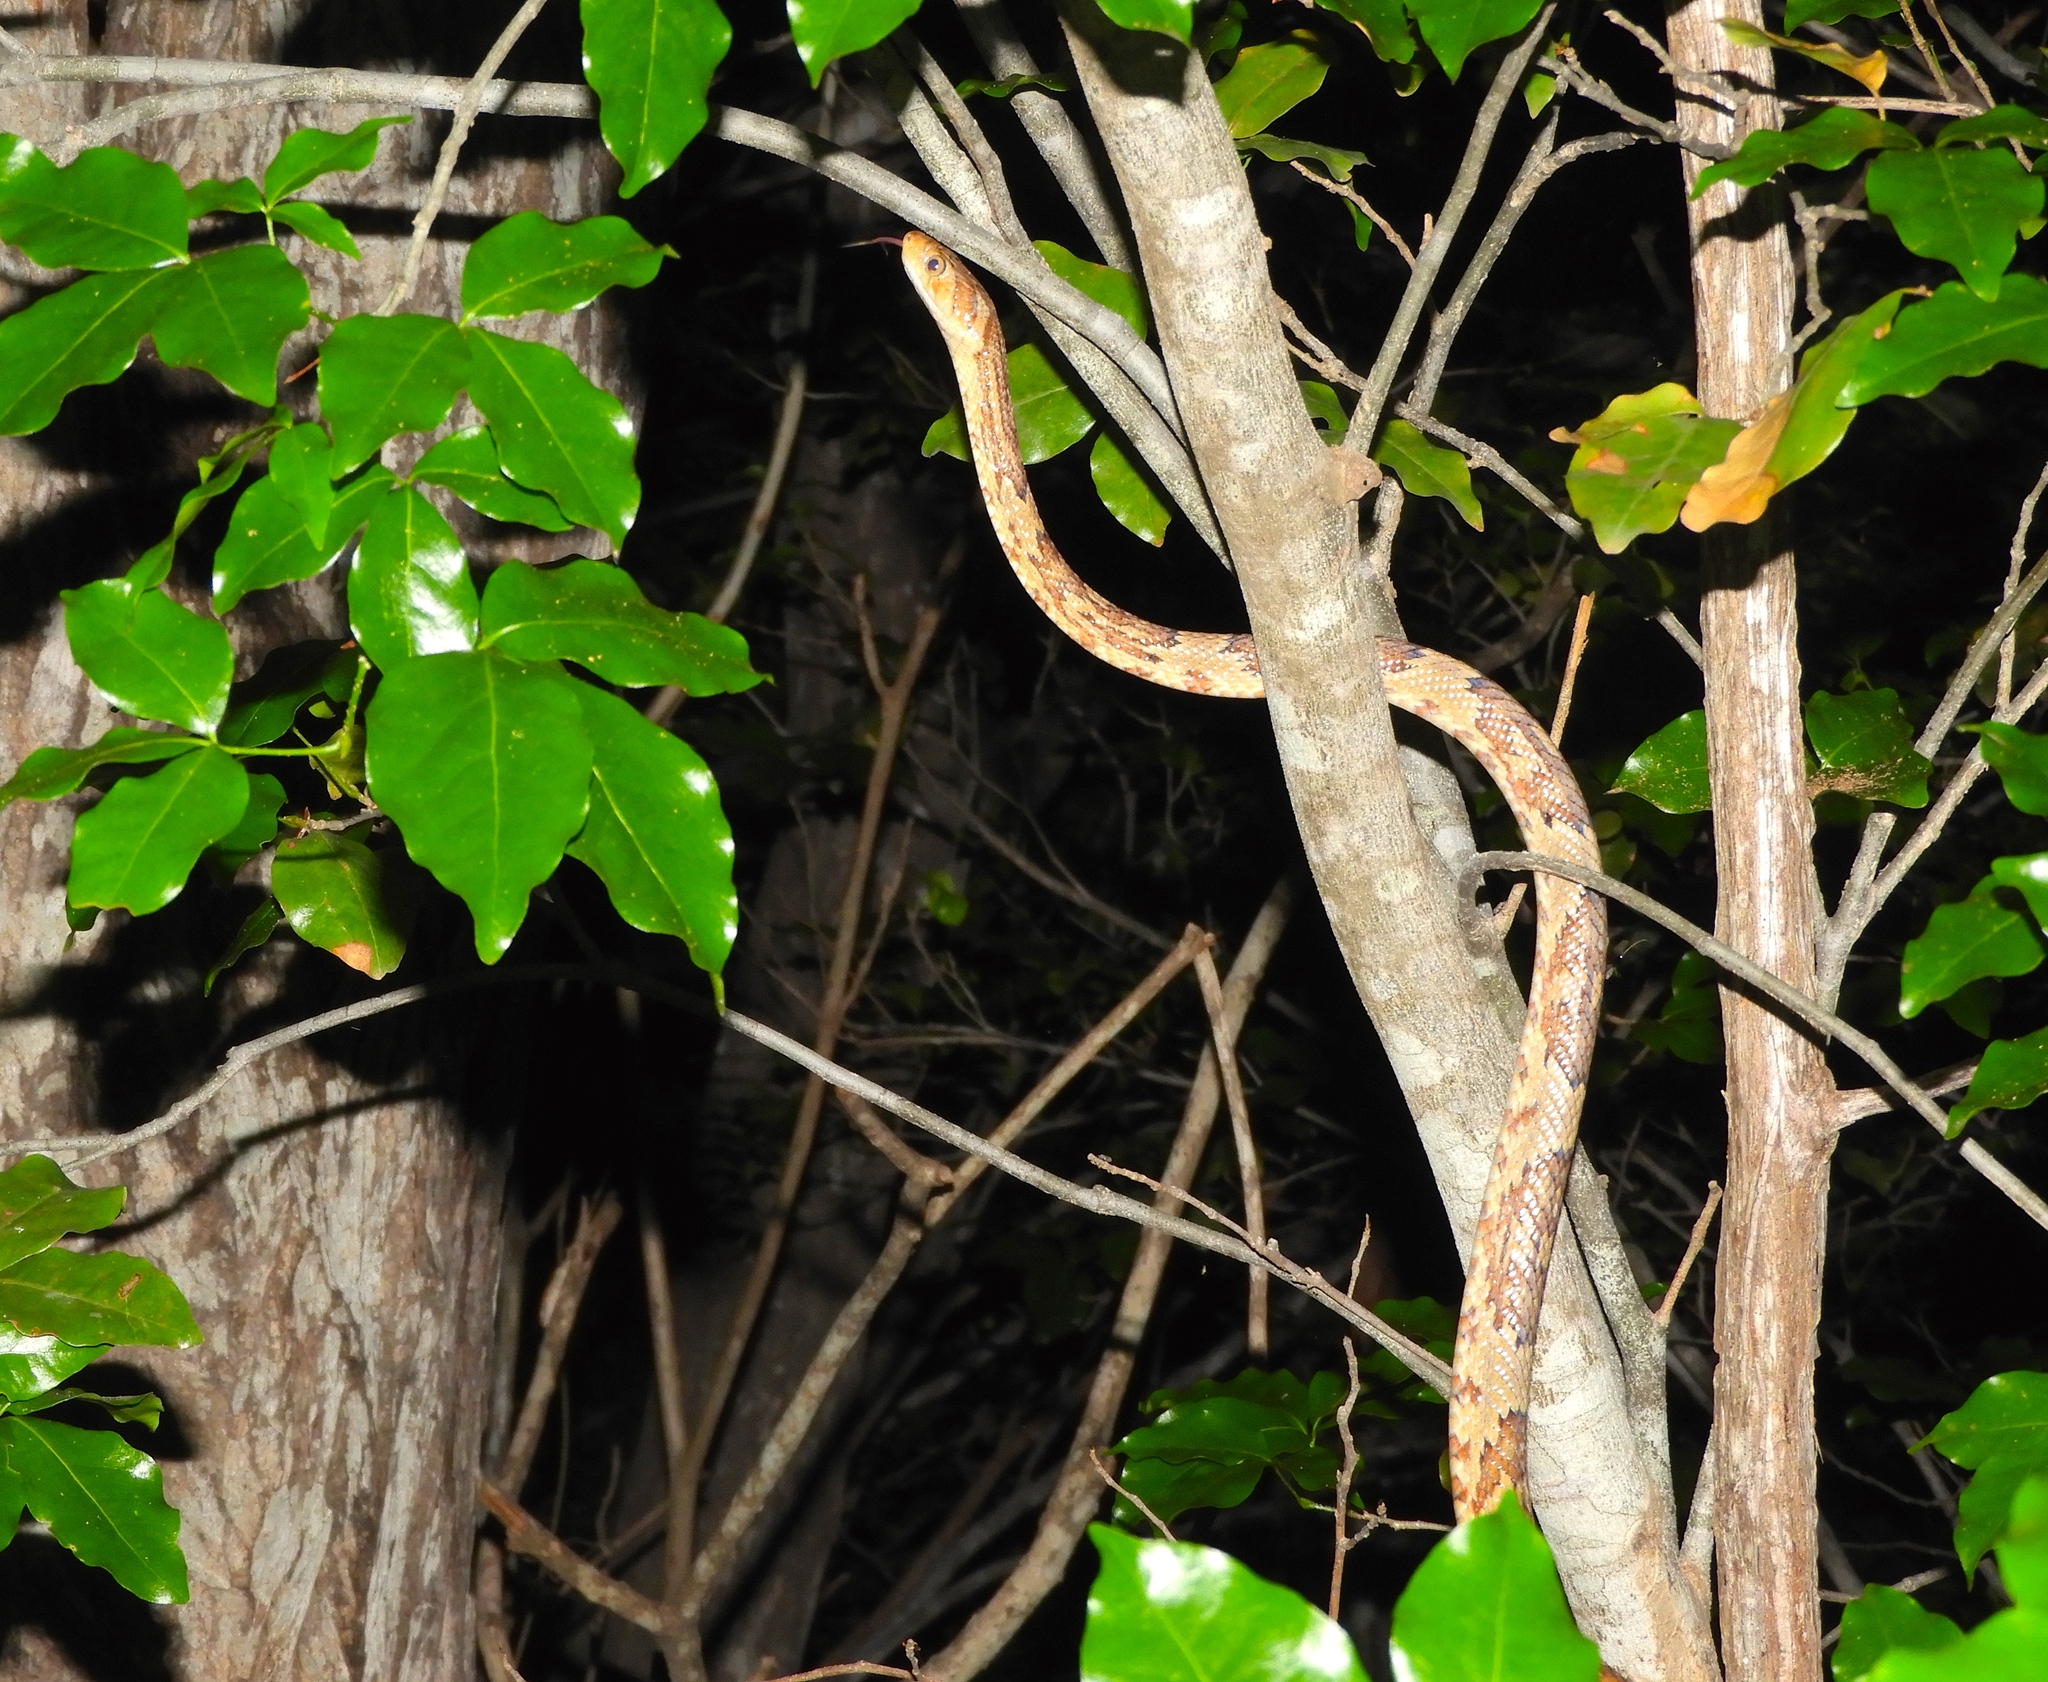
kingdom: Animalia
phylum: Chordata
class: Squamata
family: Colubridae
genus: Trimorphodon
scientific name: Trimorphodon paucimaculatus
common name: Sinaloan lyresnake
